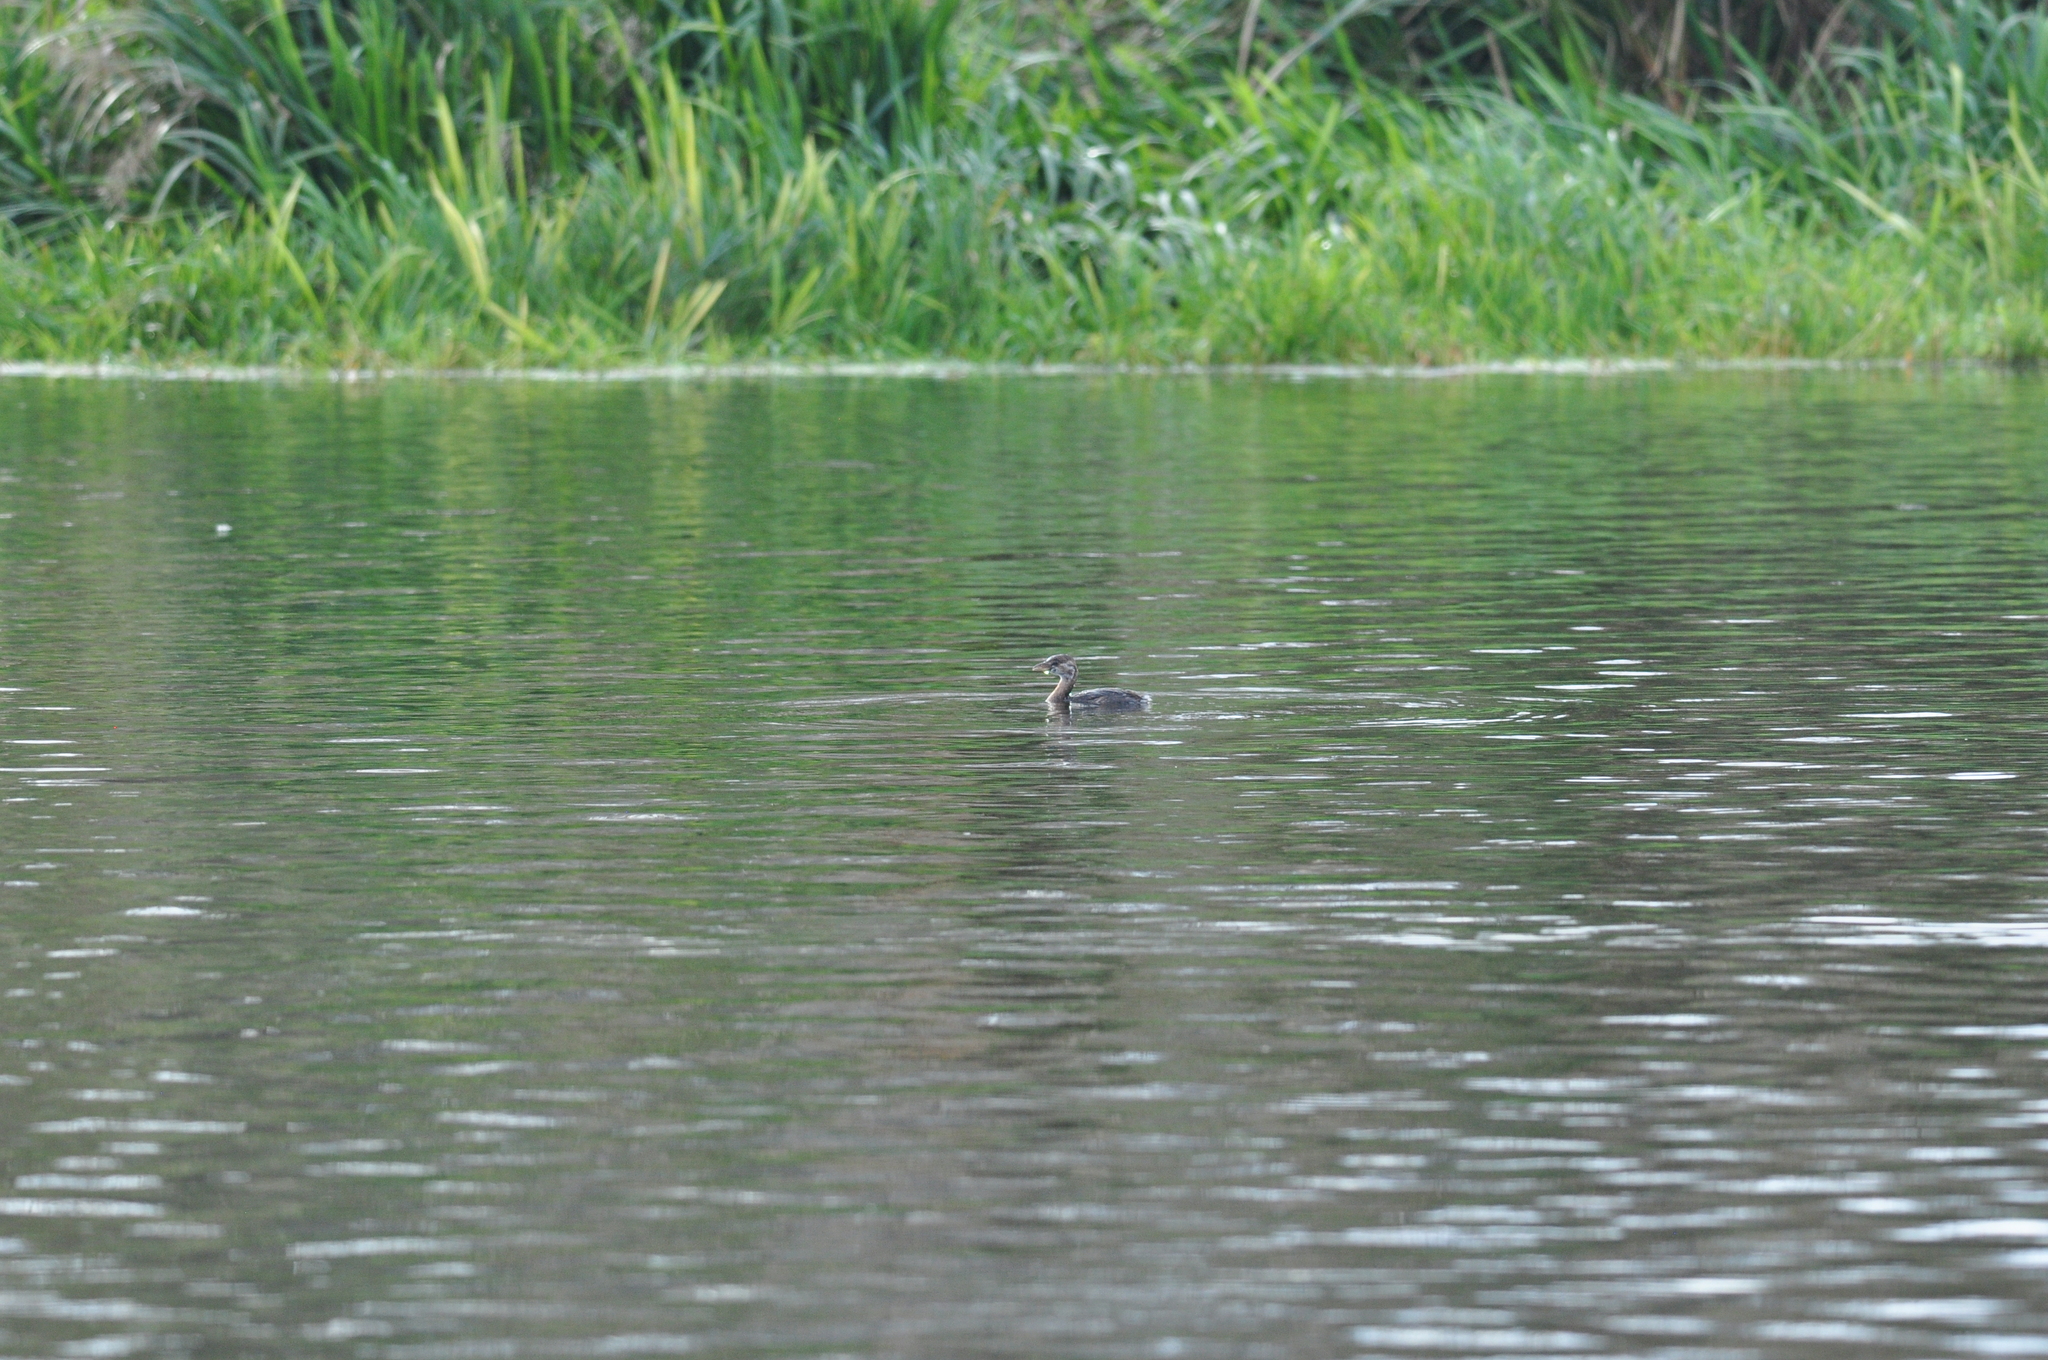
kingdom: Animalia
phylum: Chordata
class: Aves
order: Podicipediformes
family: Podicipedidae
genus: Podilymbus
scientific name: Podilymbus podiceps
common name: Pied-billed grebe
